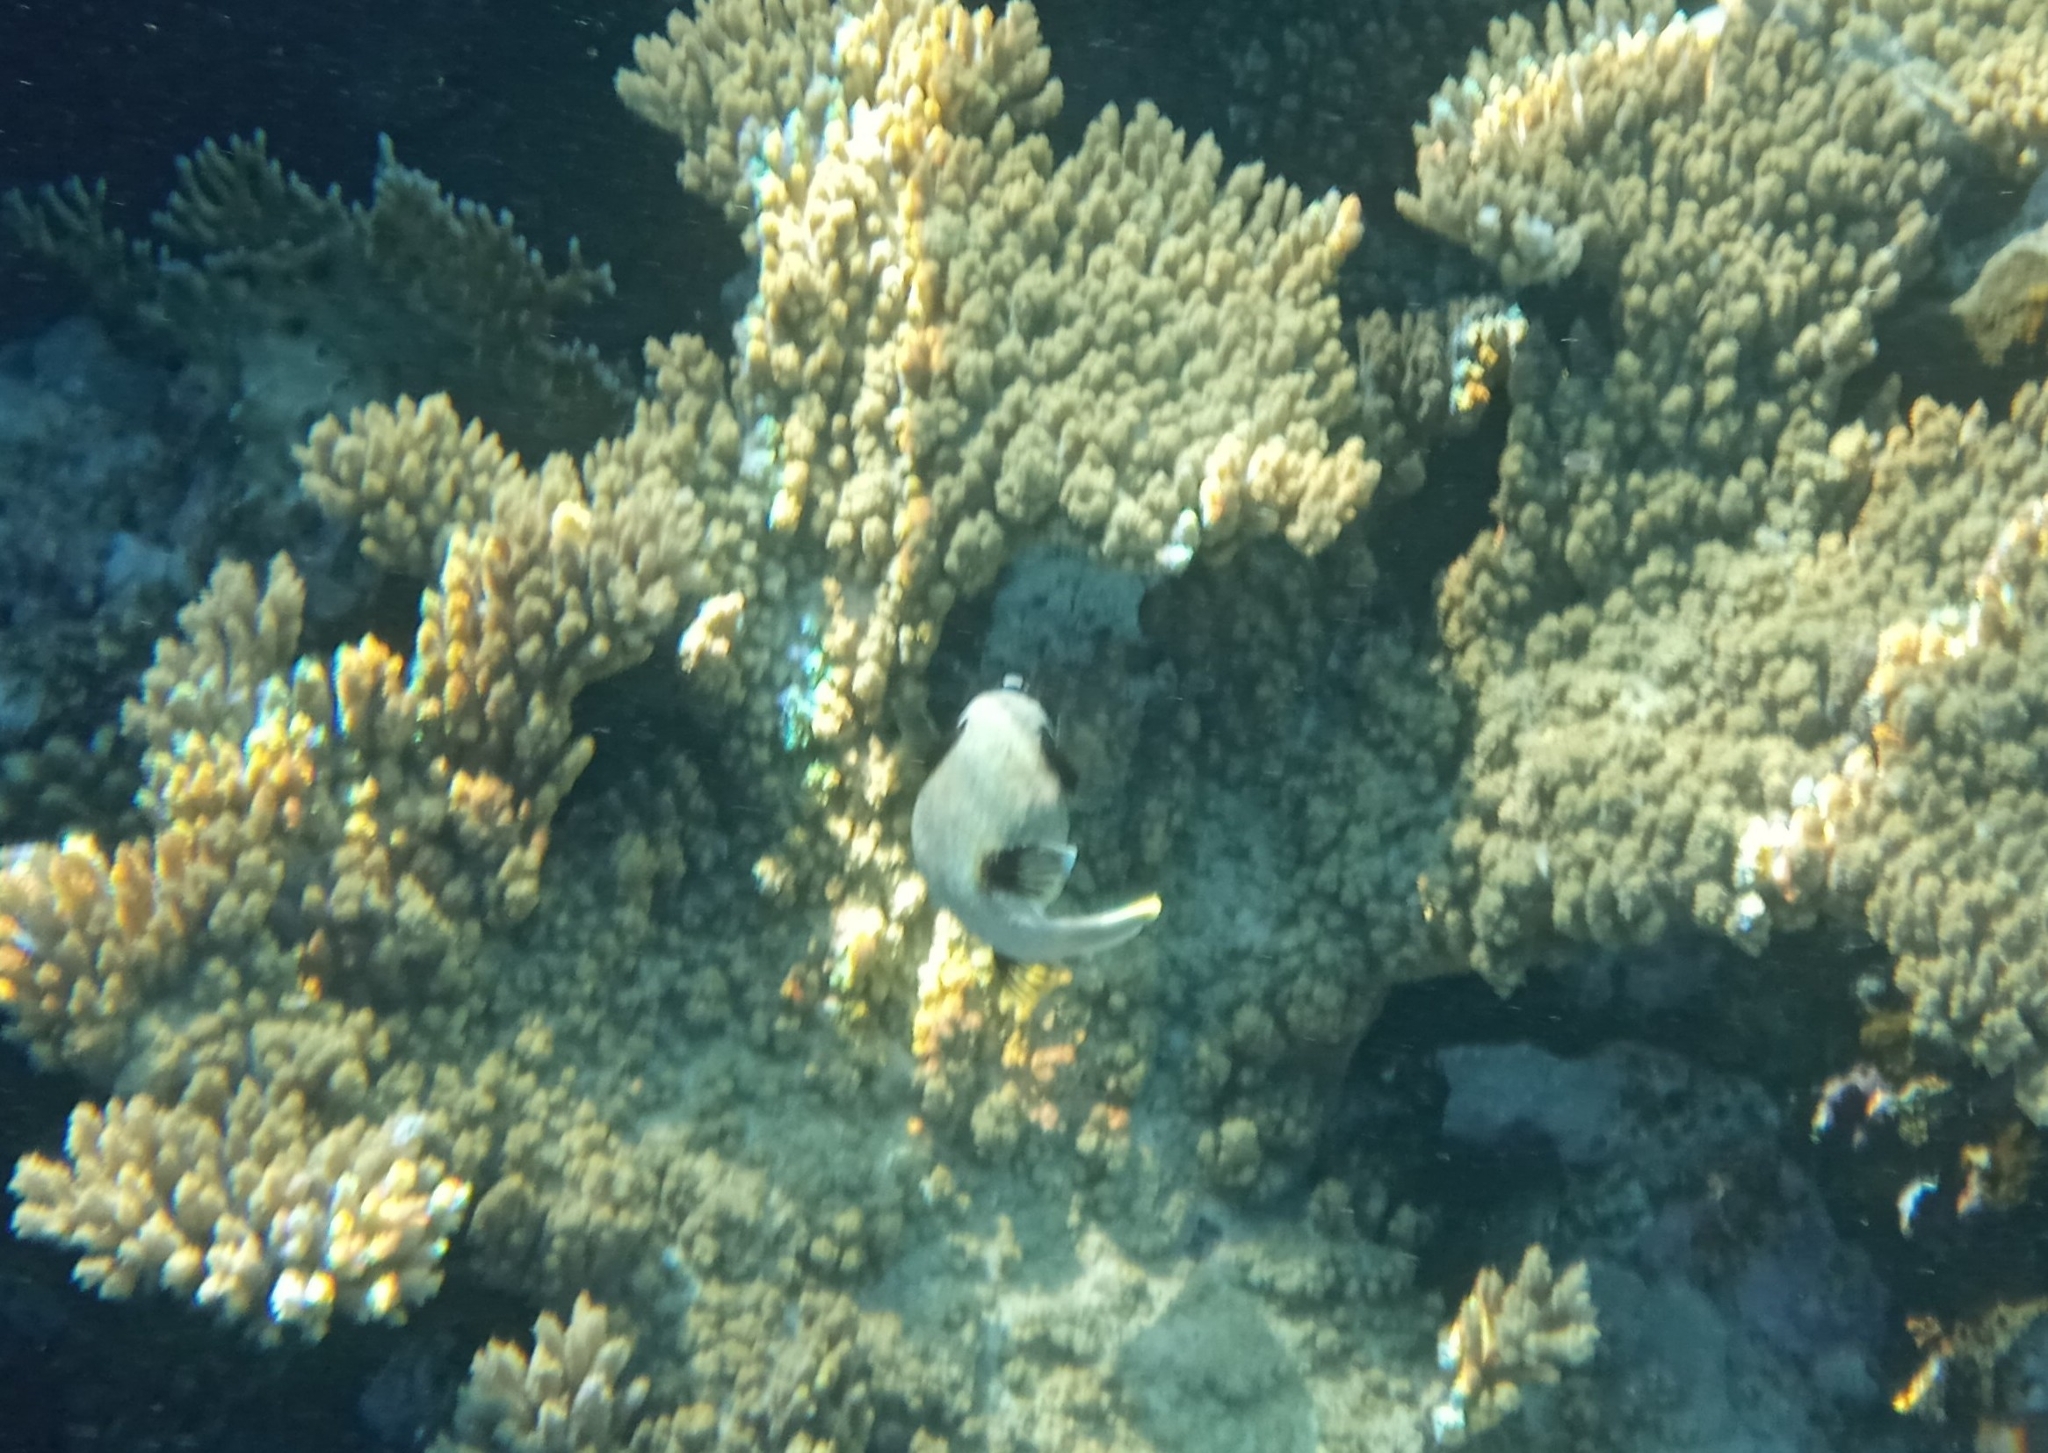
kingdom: Animalia
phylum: Chordata
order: Tetraodontiformes
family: Tetraodontidae
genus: Arothron
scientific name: Arothron diadematus
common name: Masked puffer
